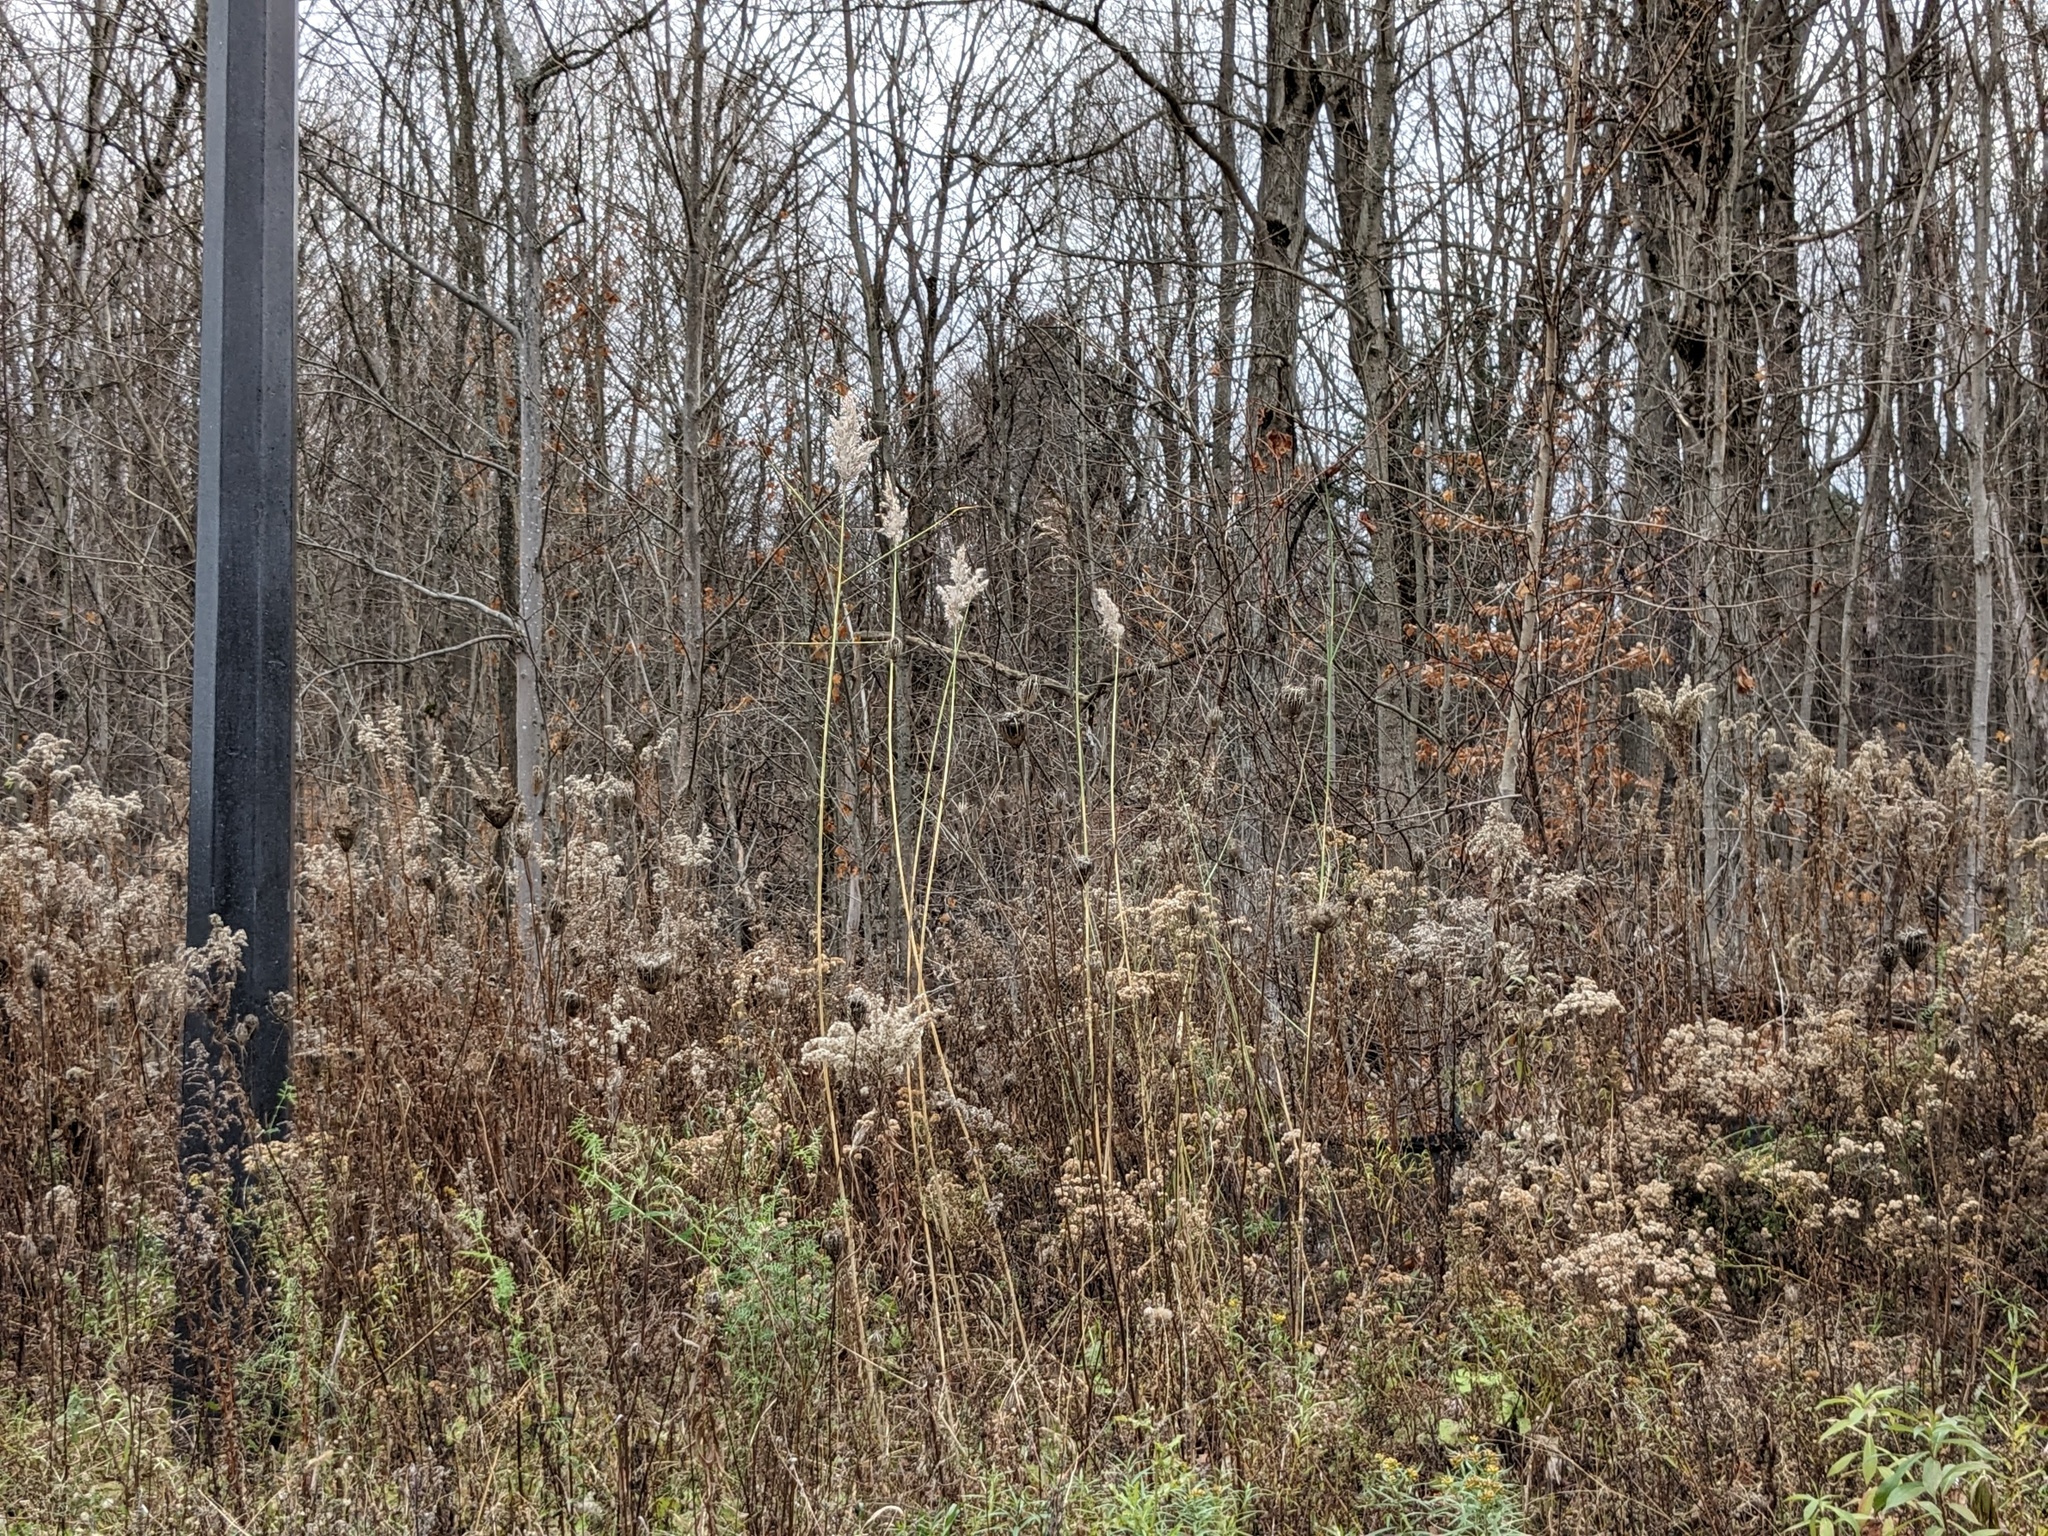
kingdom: Plantae
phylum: Tracheophyta
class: Liliopsida
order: Poales
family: Poaceae
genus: Phragmites
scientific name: Phragmites australis
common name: Common reed
